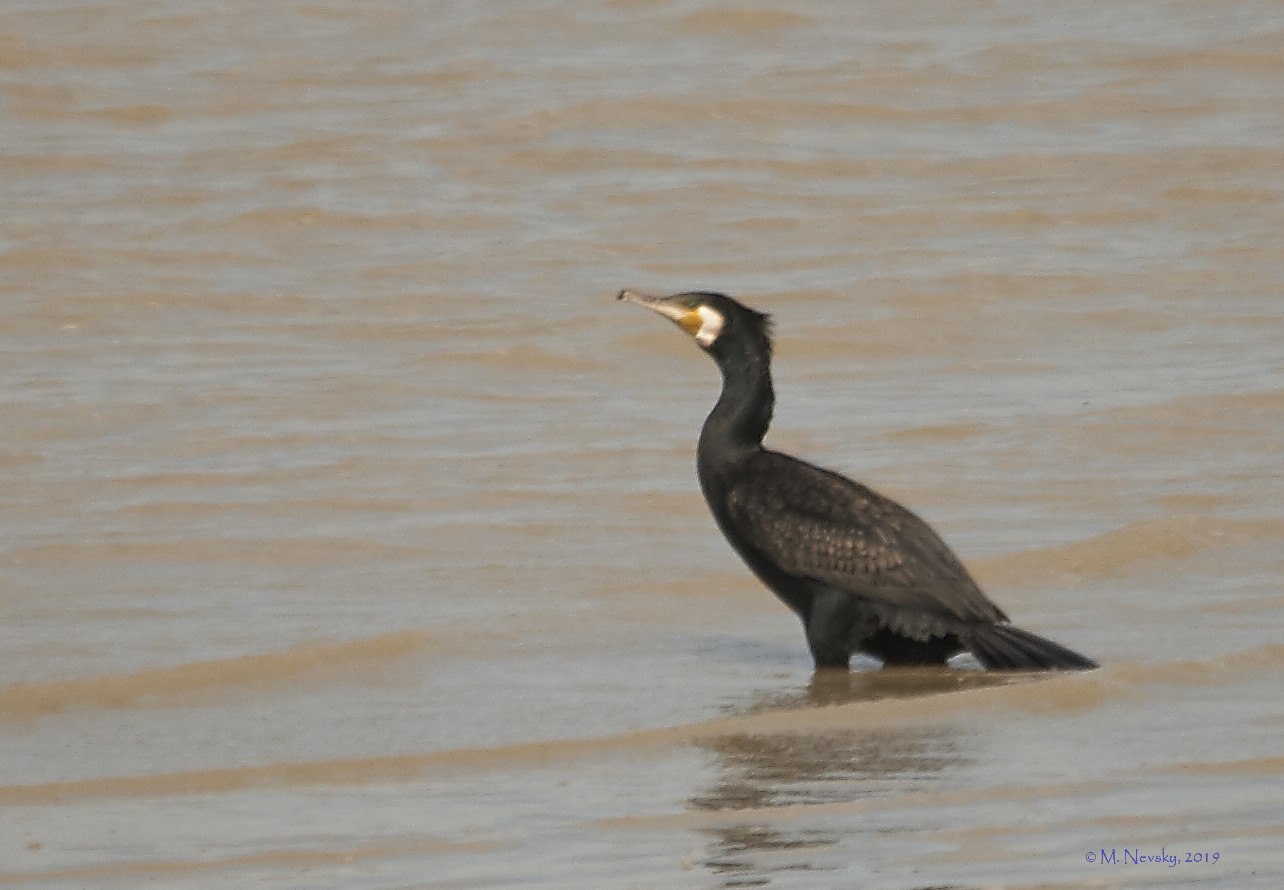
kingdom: Animalia
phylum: Chordata
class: Aves
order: Suliformes
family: Phalacrocoracidae
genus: Phalacrocorax
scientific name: Phalacrocorax carbo
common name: Great cormorant
